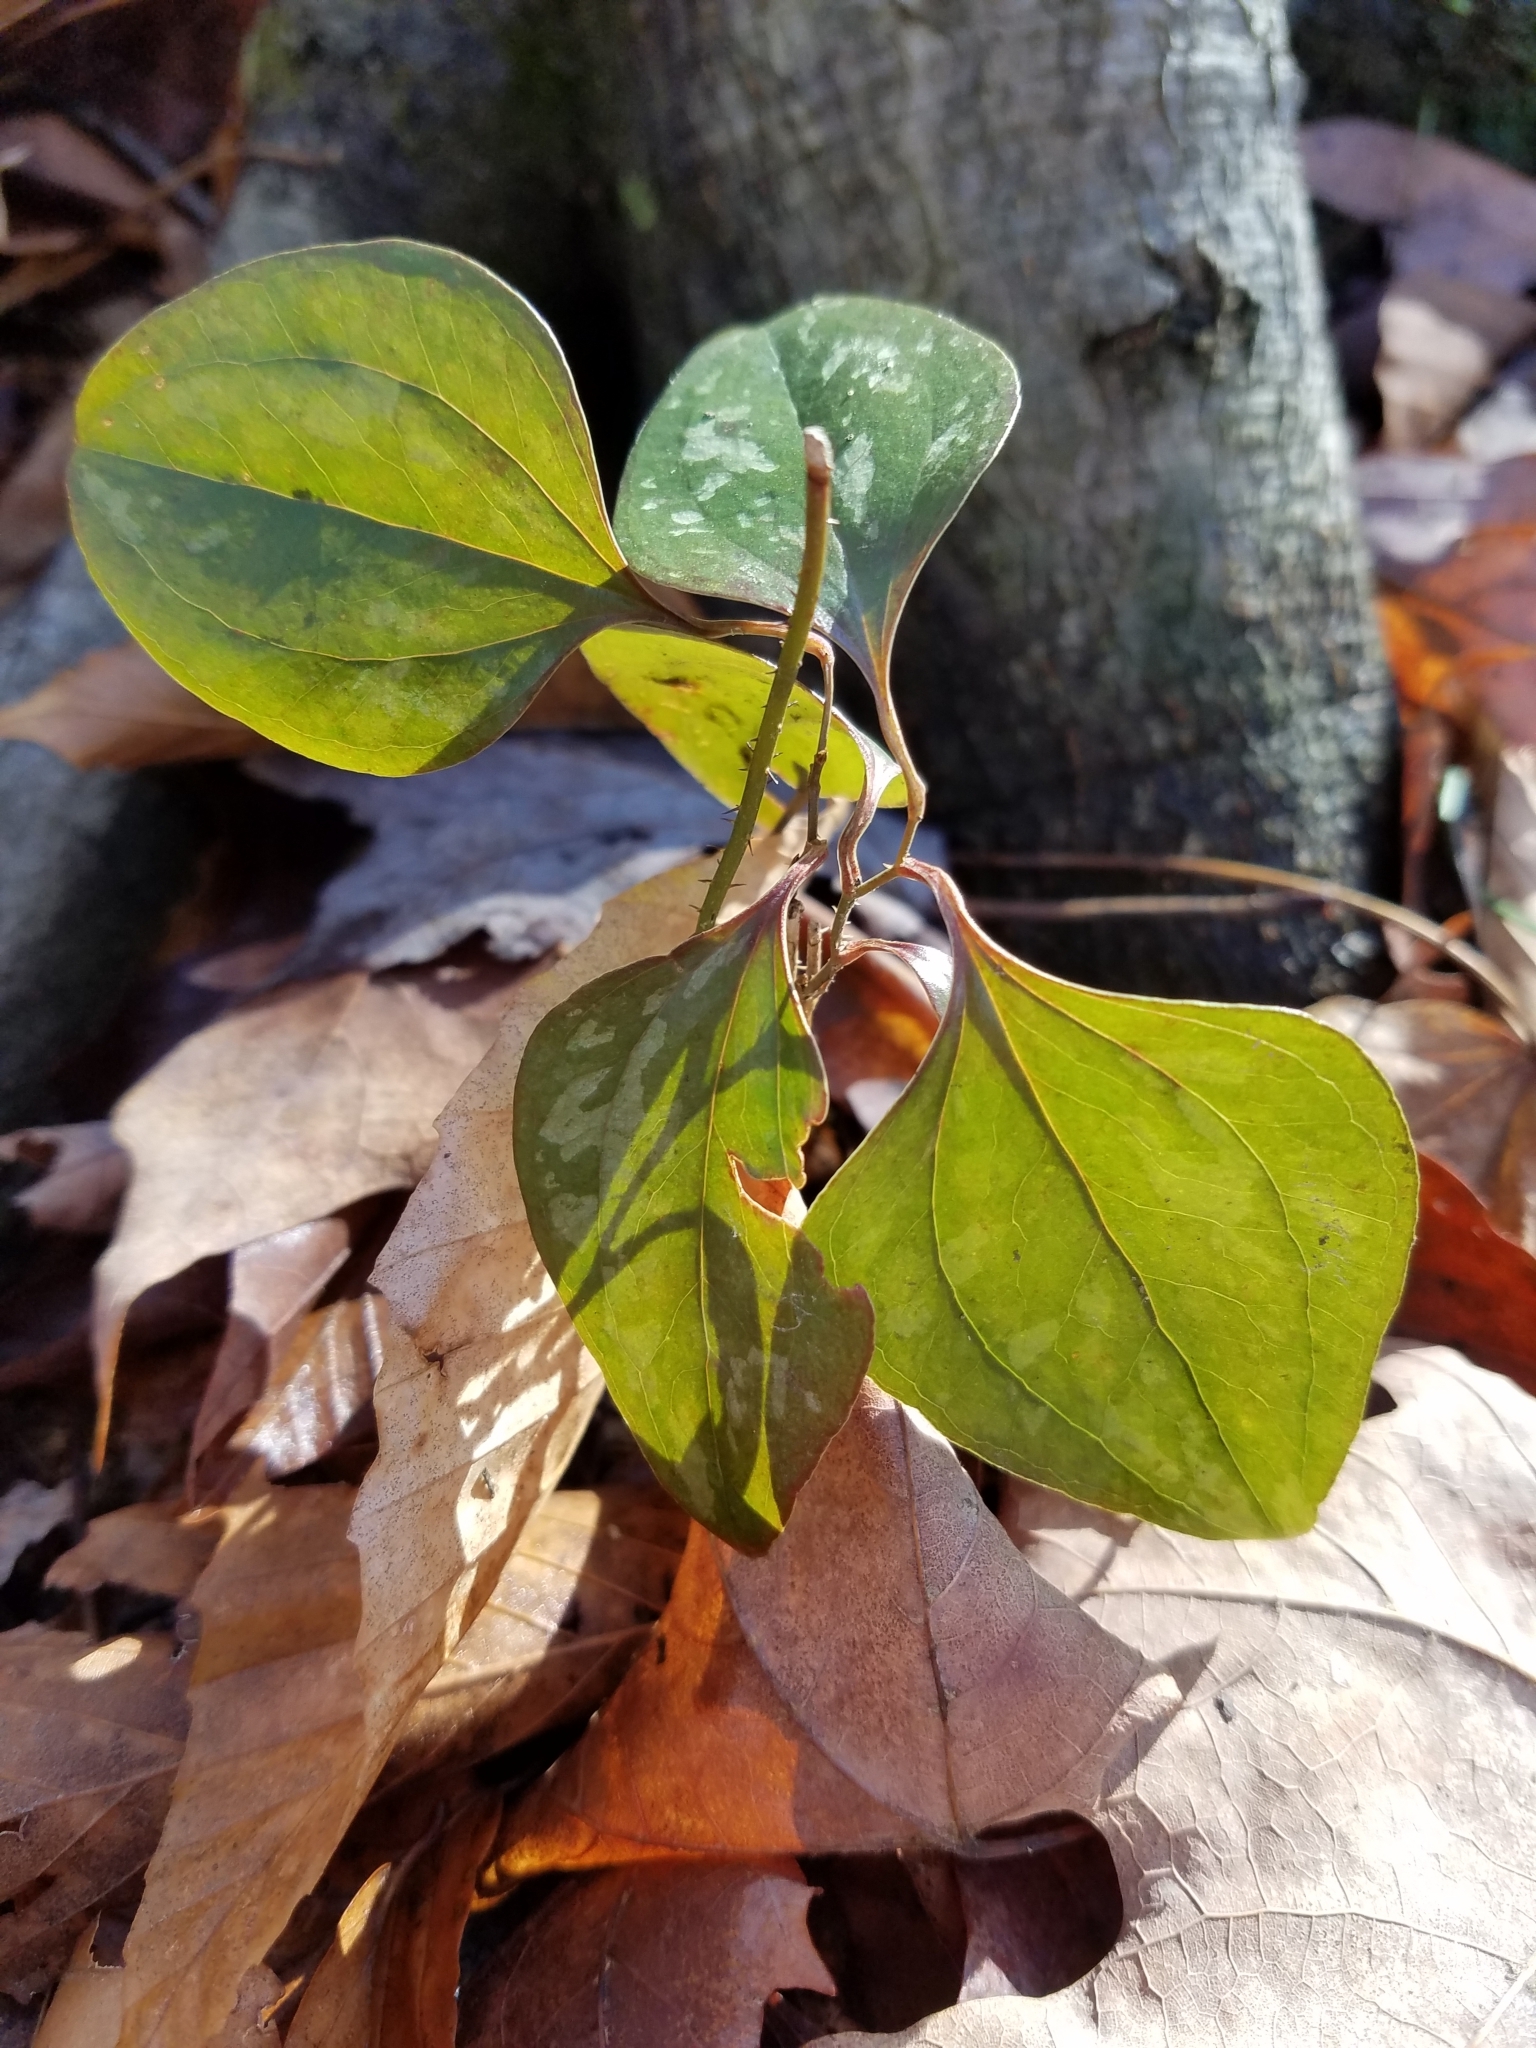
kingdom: Plantae
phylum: Tracheophyta
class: Liliopsida
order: Liliales
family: Smilacaceae
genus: Smilax
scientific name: Smilax glauca
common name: Cat greenbrier
